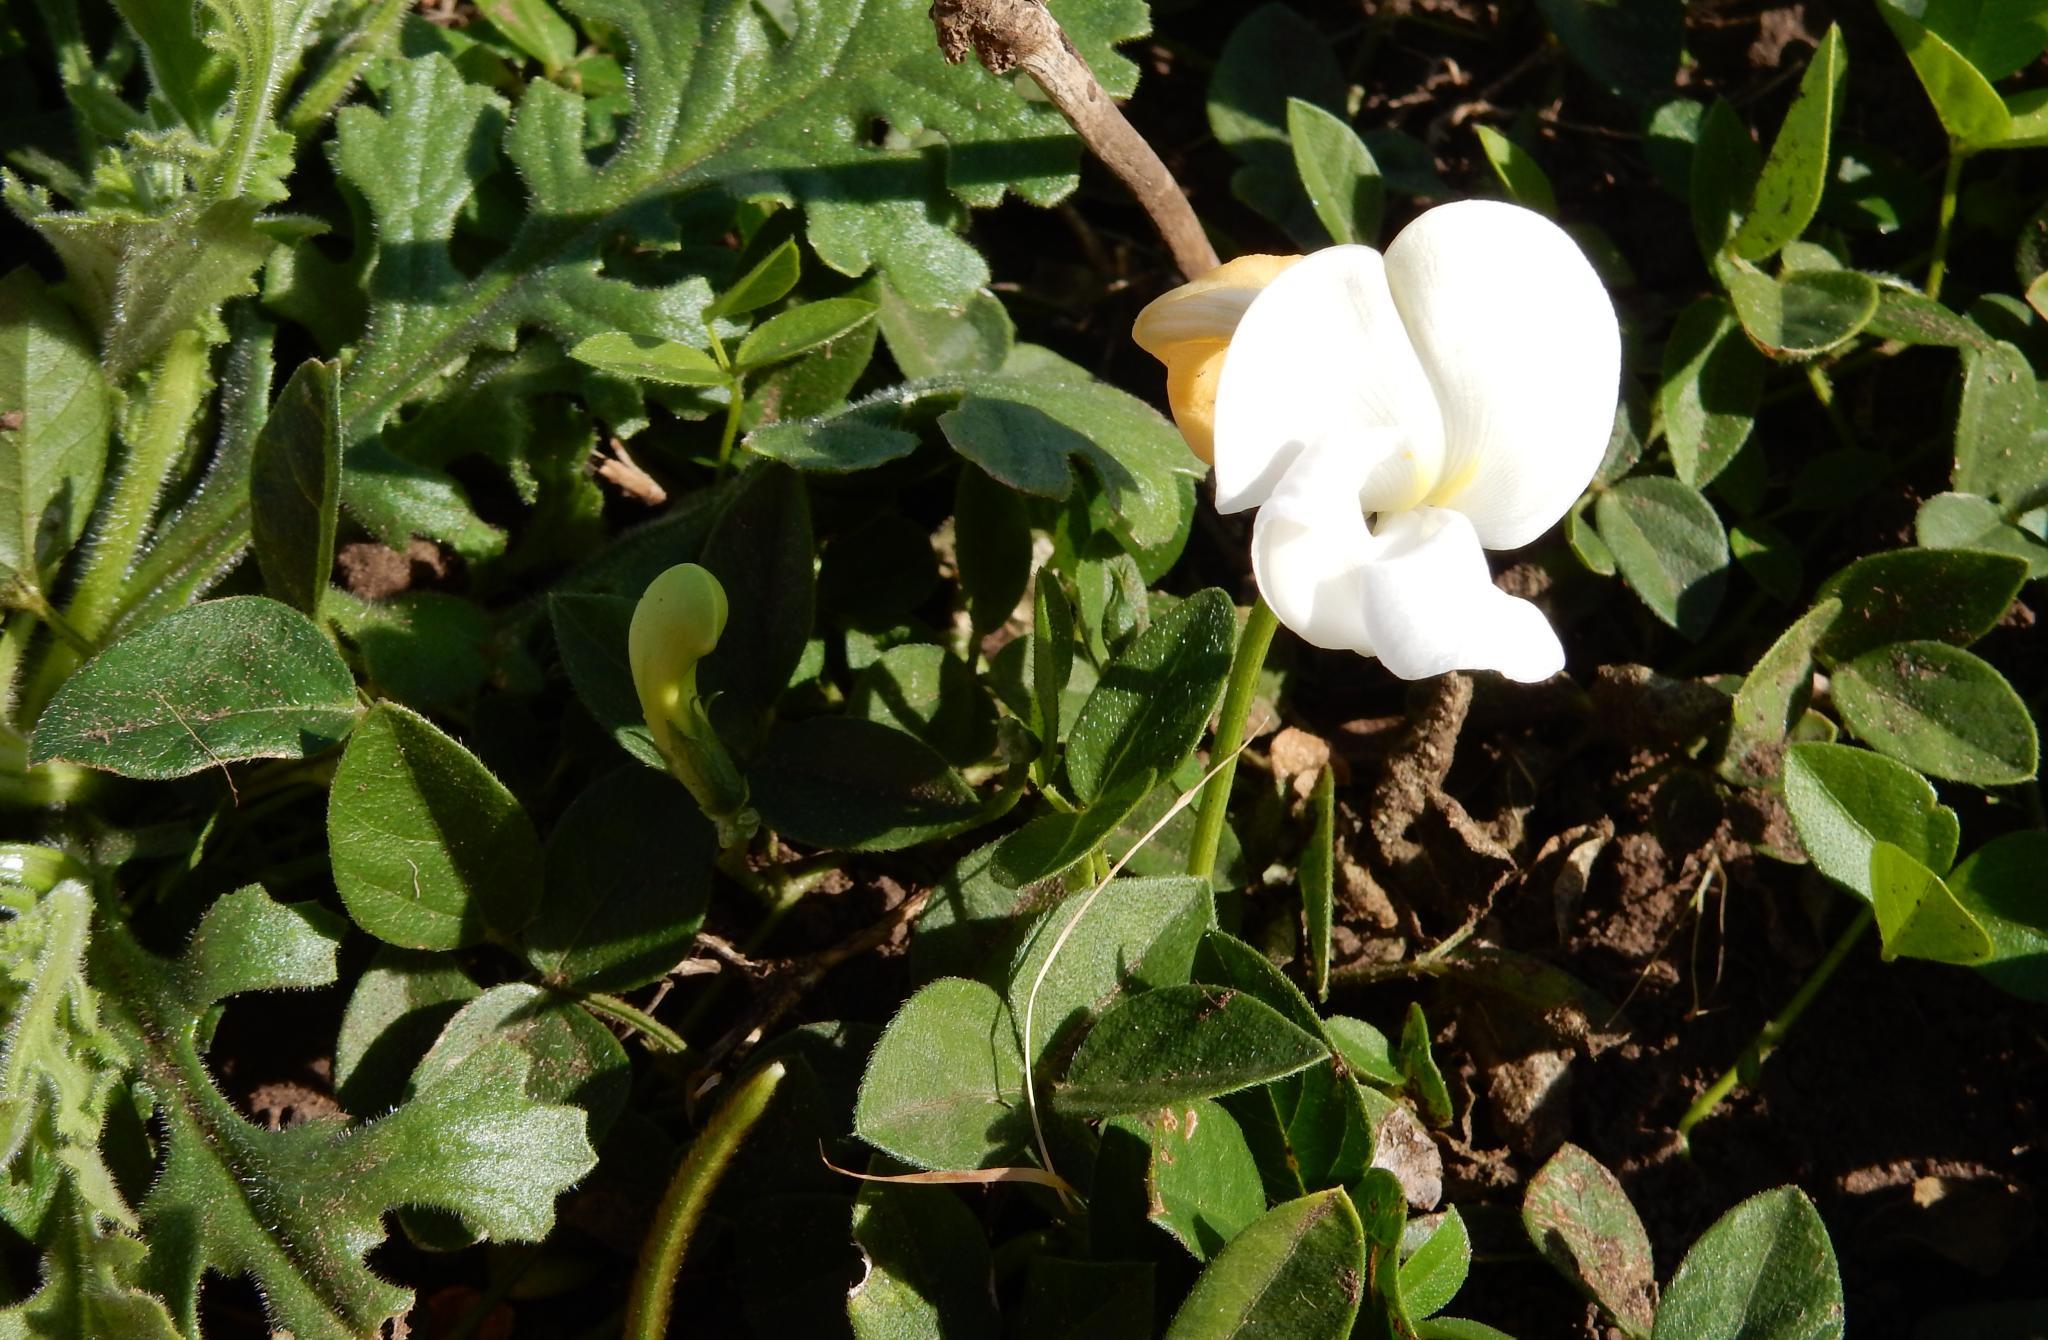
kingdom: Plantae
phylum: Tracheophyta
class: Magnoliopsida
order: Fabales
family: Fabaceae
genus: Vigna
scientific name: Vigna vexillata
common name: Zombi pea
